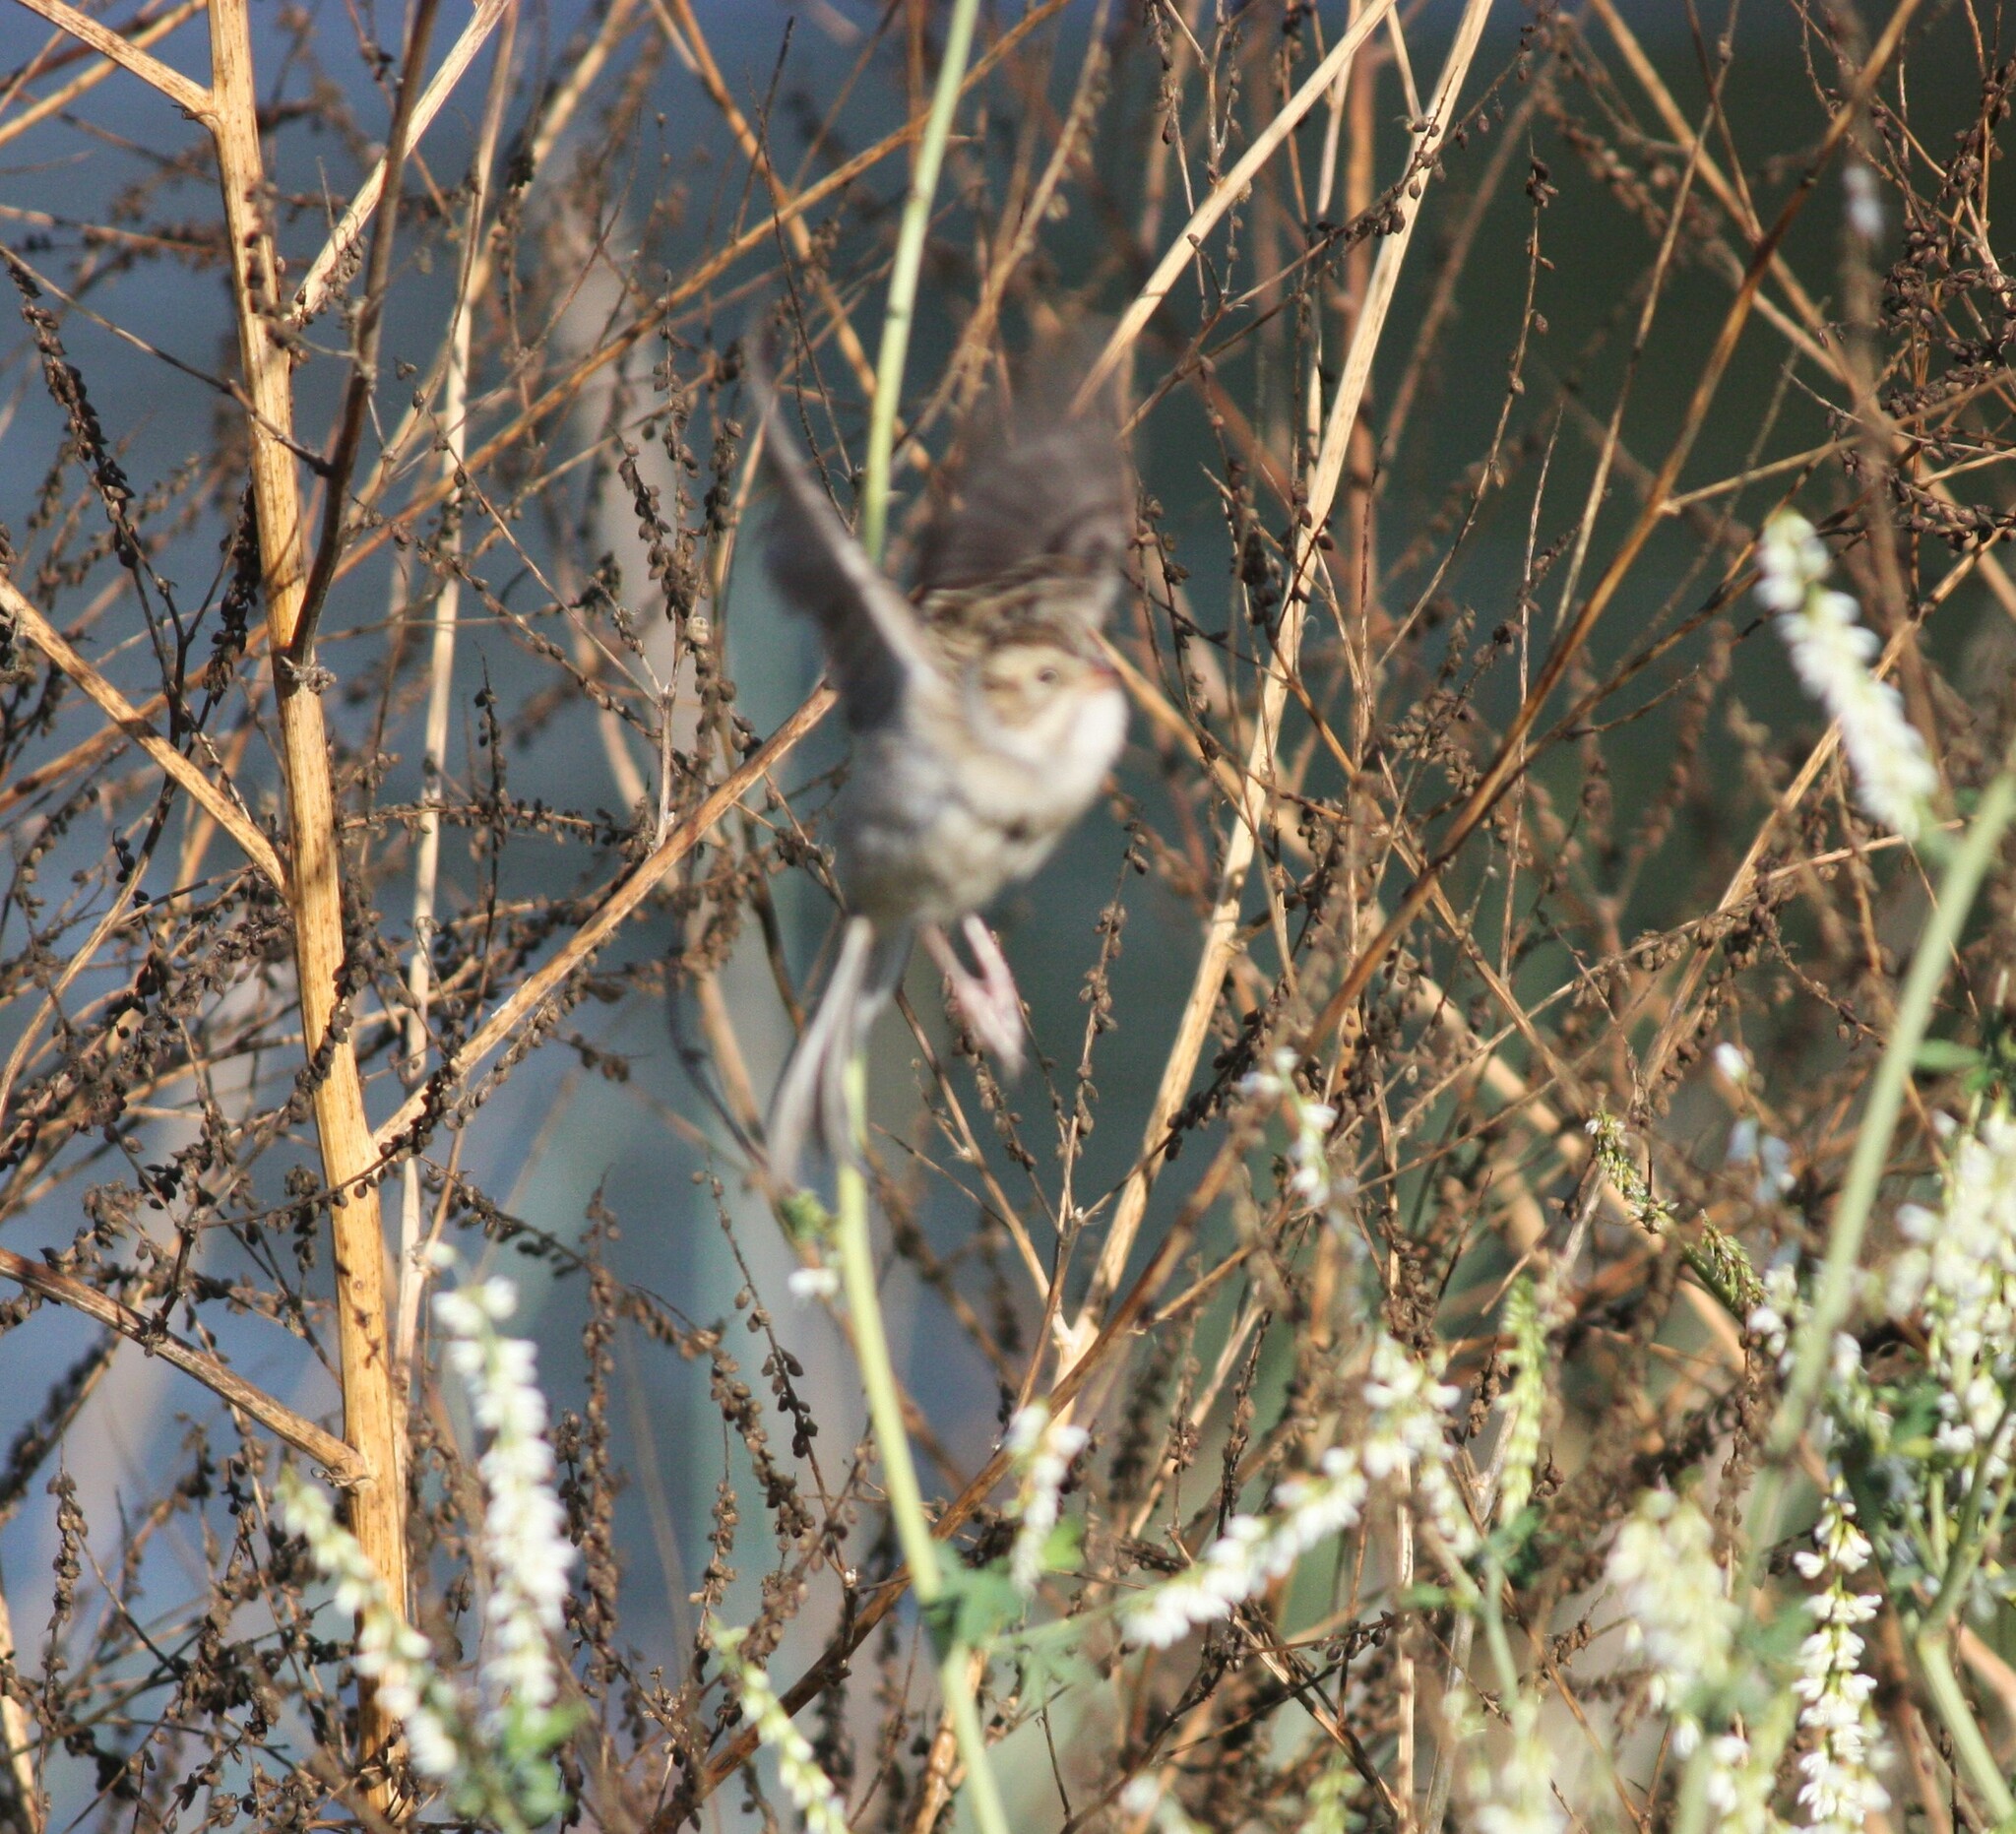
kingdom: Animalia
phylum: Chordata
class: Aves
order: Passeriformes
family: Passerellidae
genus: Spizella
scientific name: Spizella pallida
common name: Clay-colored sparrow
